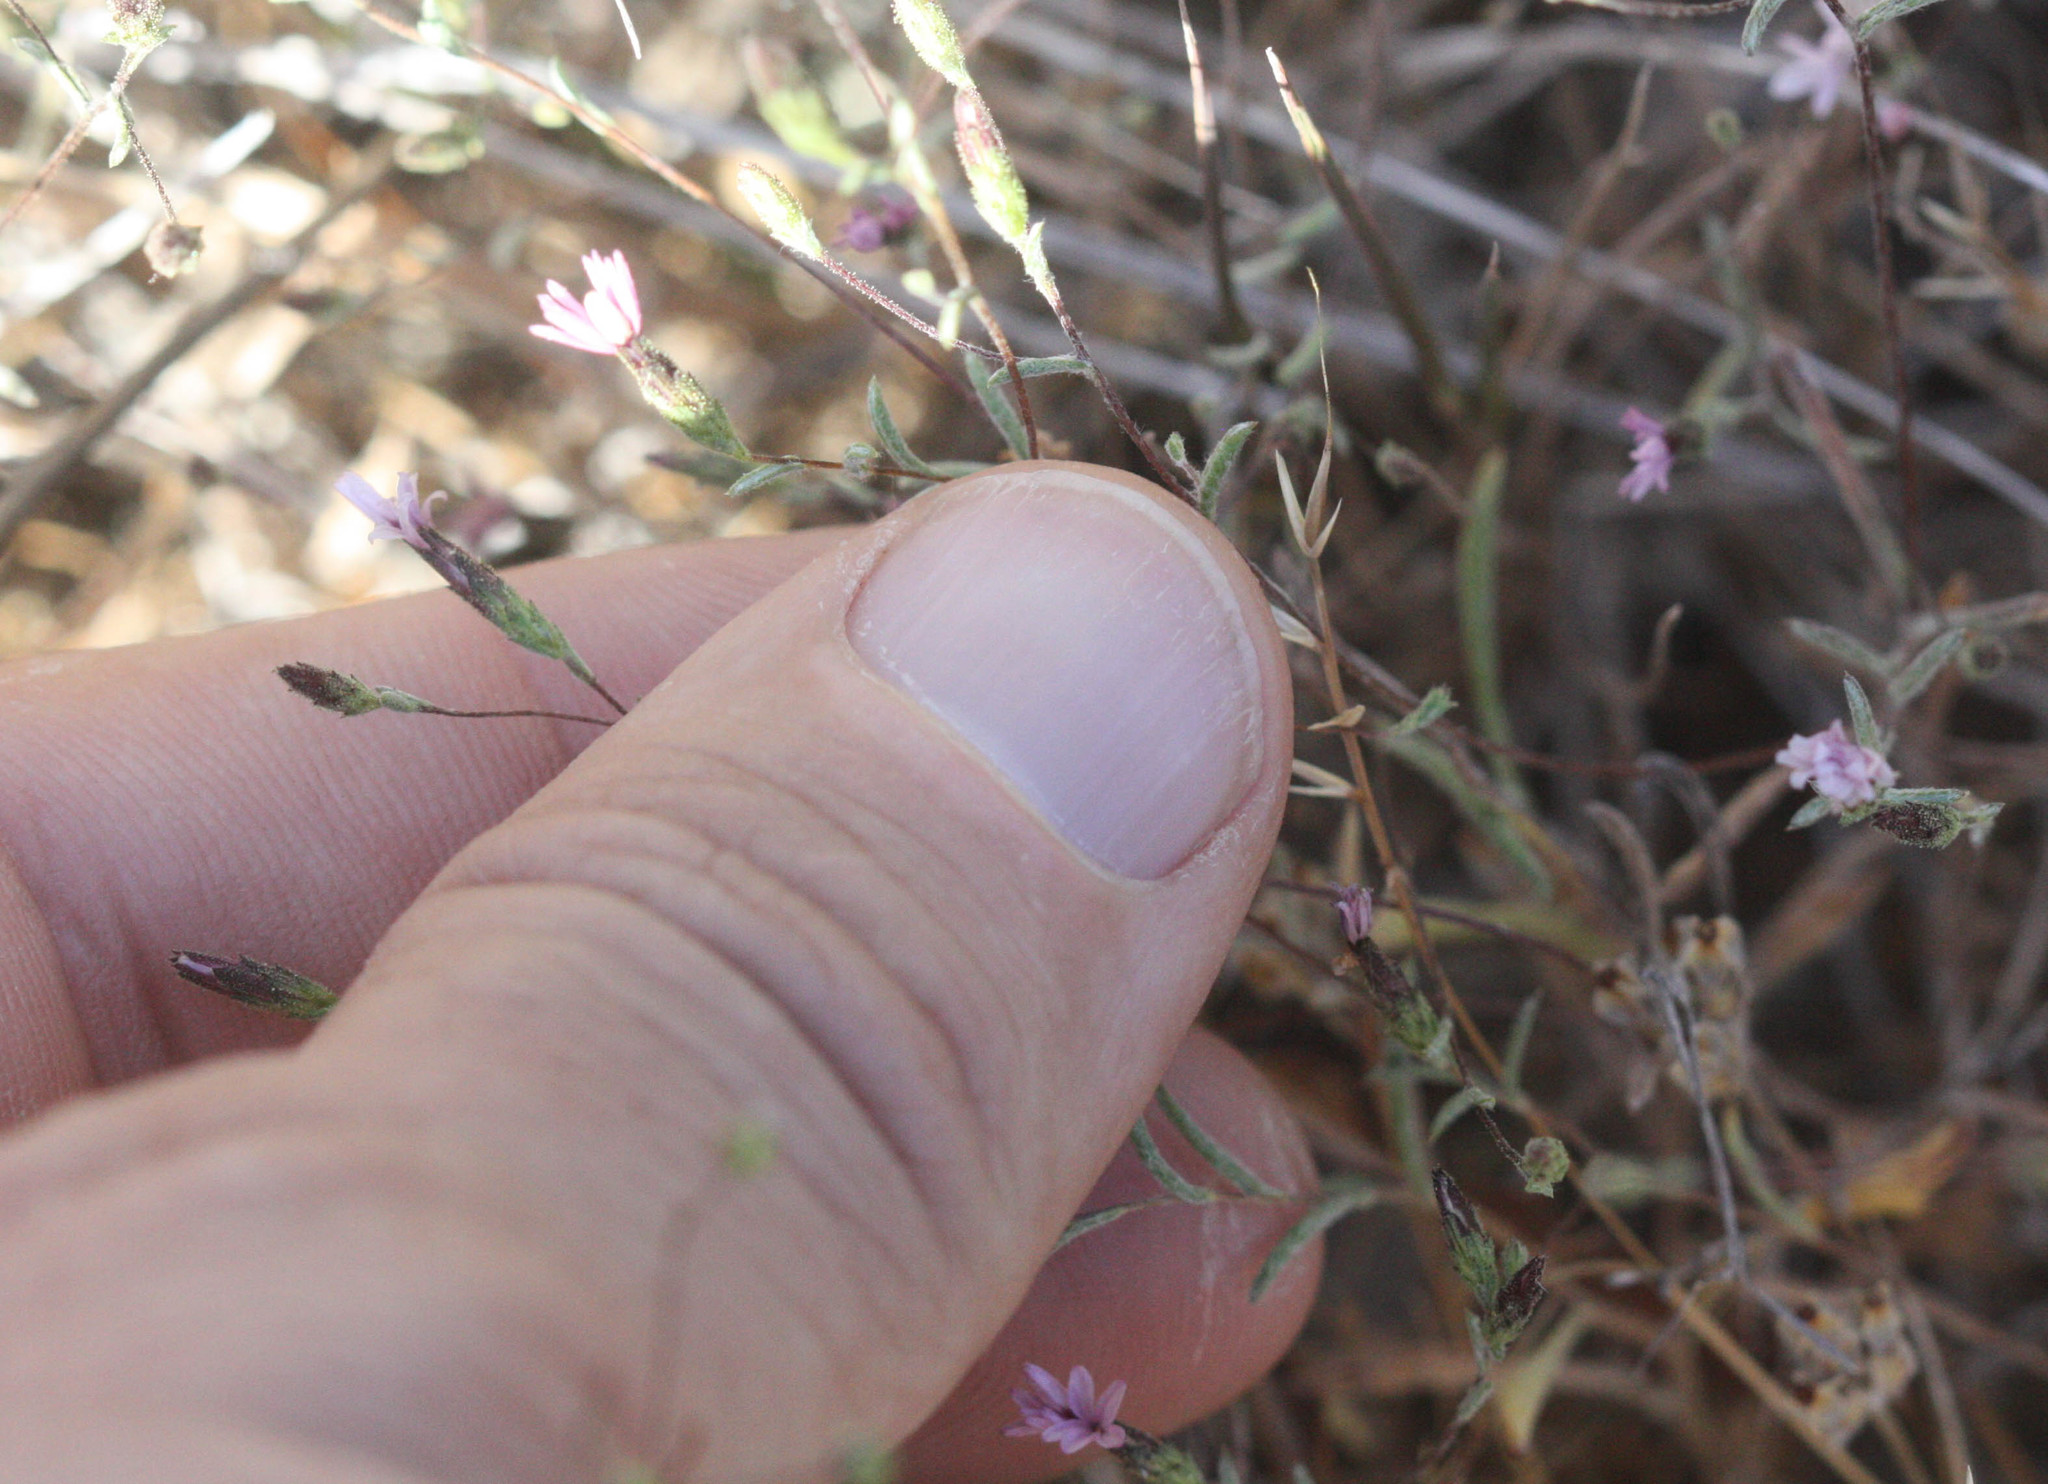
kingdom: Plantae
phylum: Tracheophyta
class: Magnoliopsida
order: Asterales
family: Asteraceae
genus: Lessingia
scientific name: Lessingia micradenia
